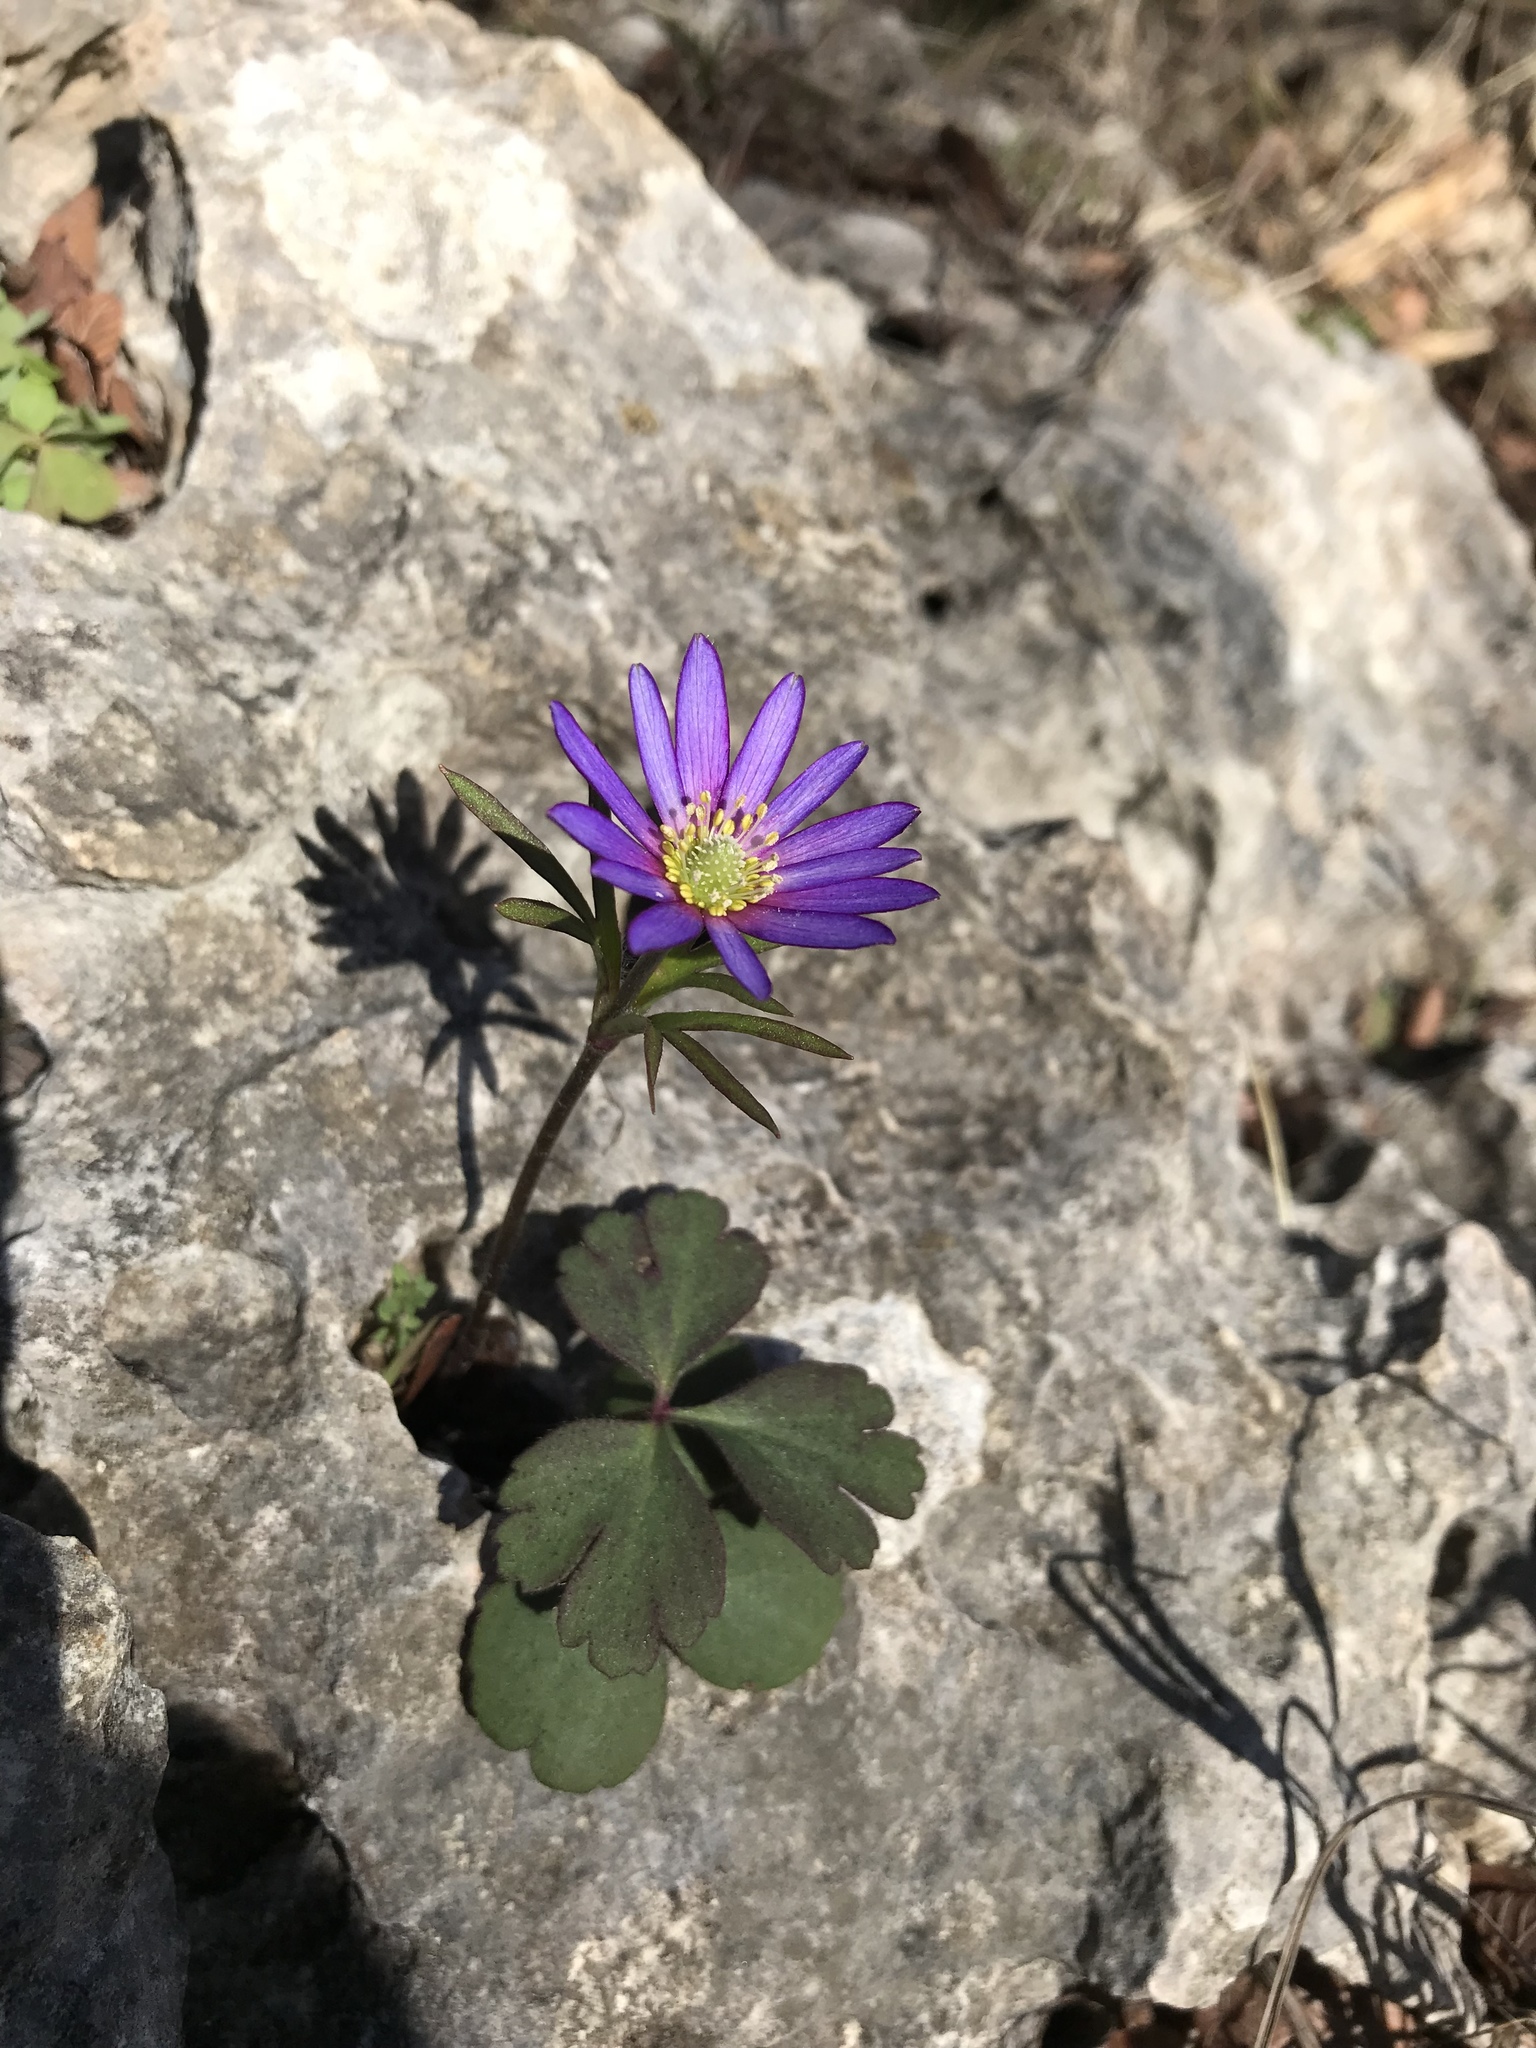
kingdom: Plantae
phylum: Tracheophyta
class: Magnoliopsida
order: Ranunculales
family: Ranunculaceae
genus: Anemone
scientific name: Anemone berlandieri
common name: Ten-petal anemone
